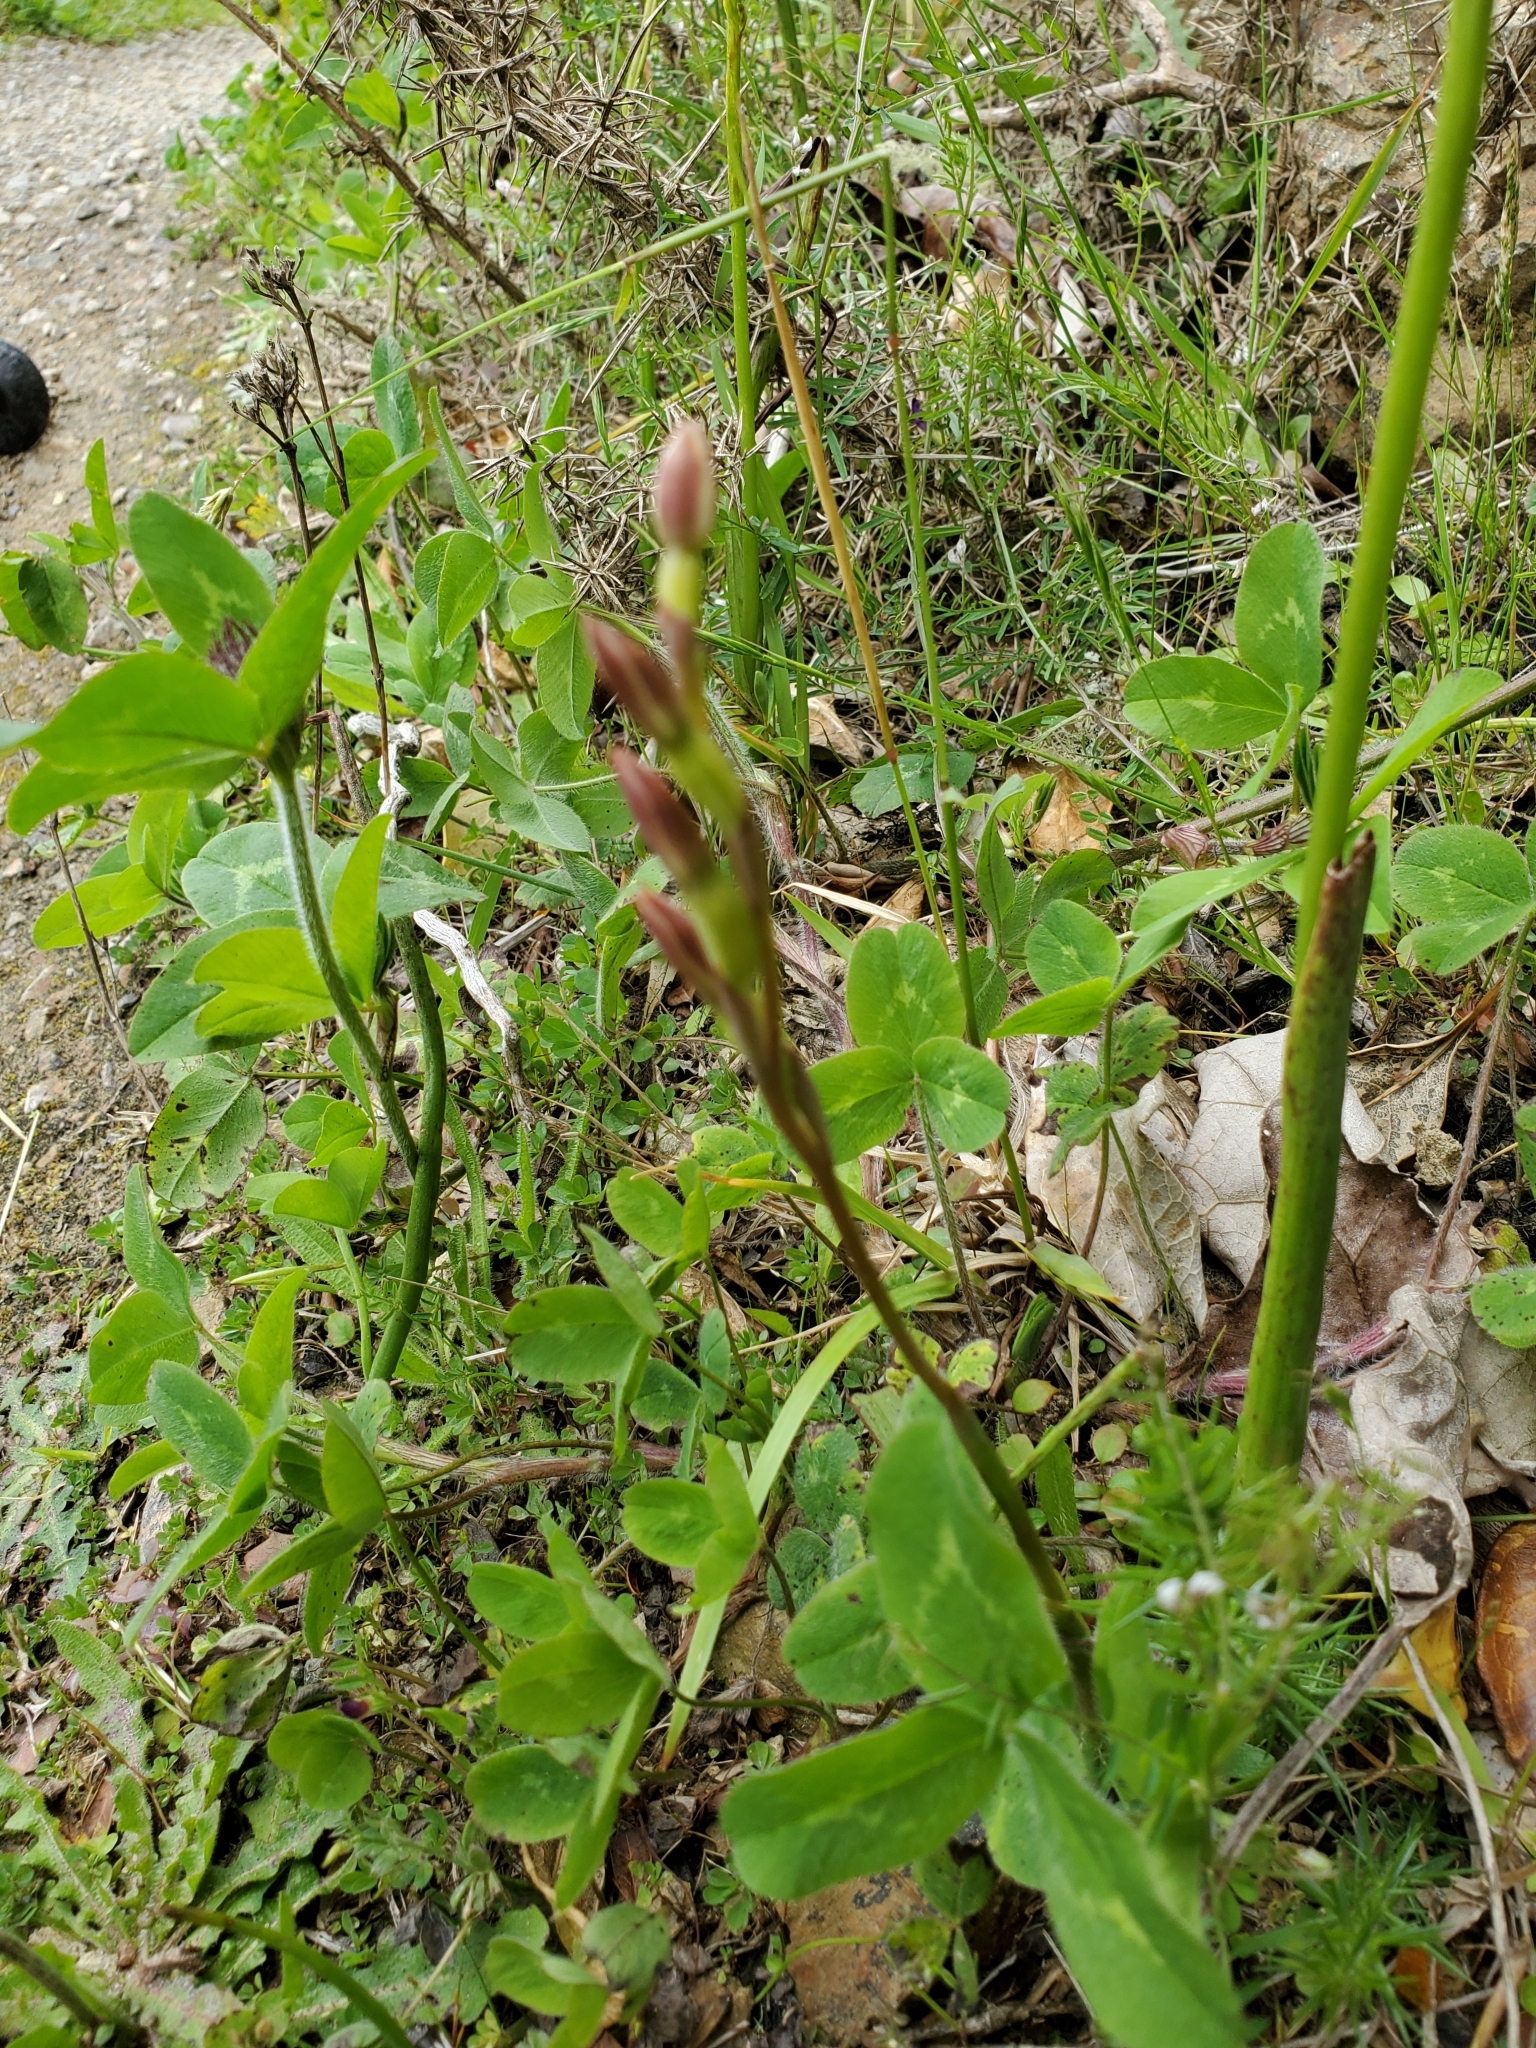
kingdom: Plantae
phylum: Tracheophyta
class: Liliopsida
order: Asparagales
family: Orchidaceae
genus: Thelymitra
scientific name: Thelymitra longifolia
